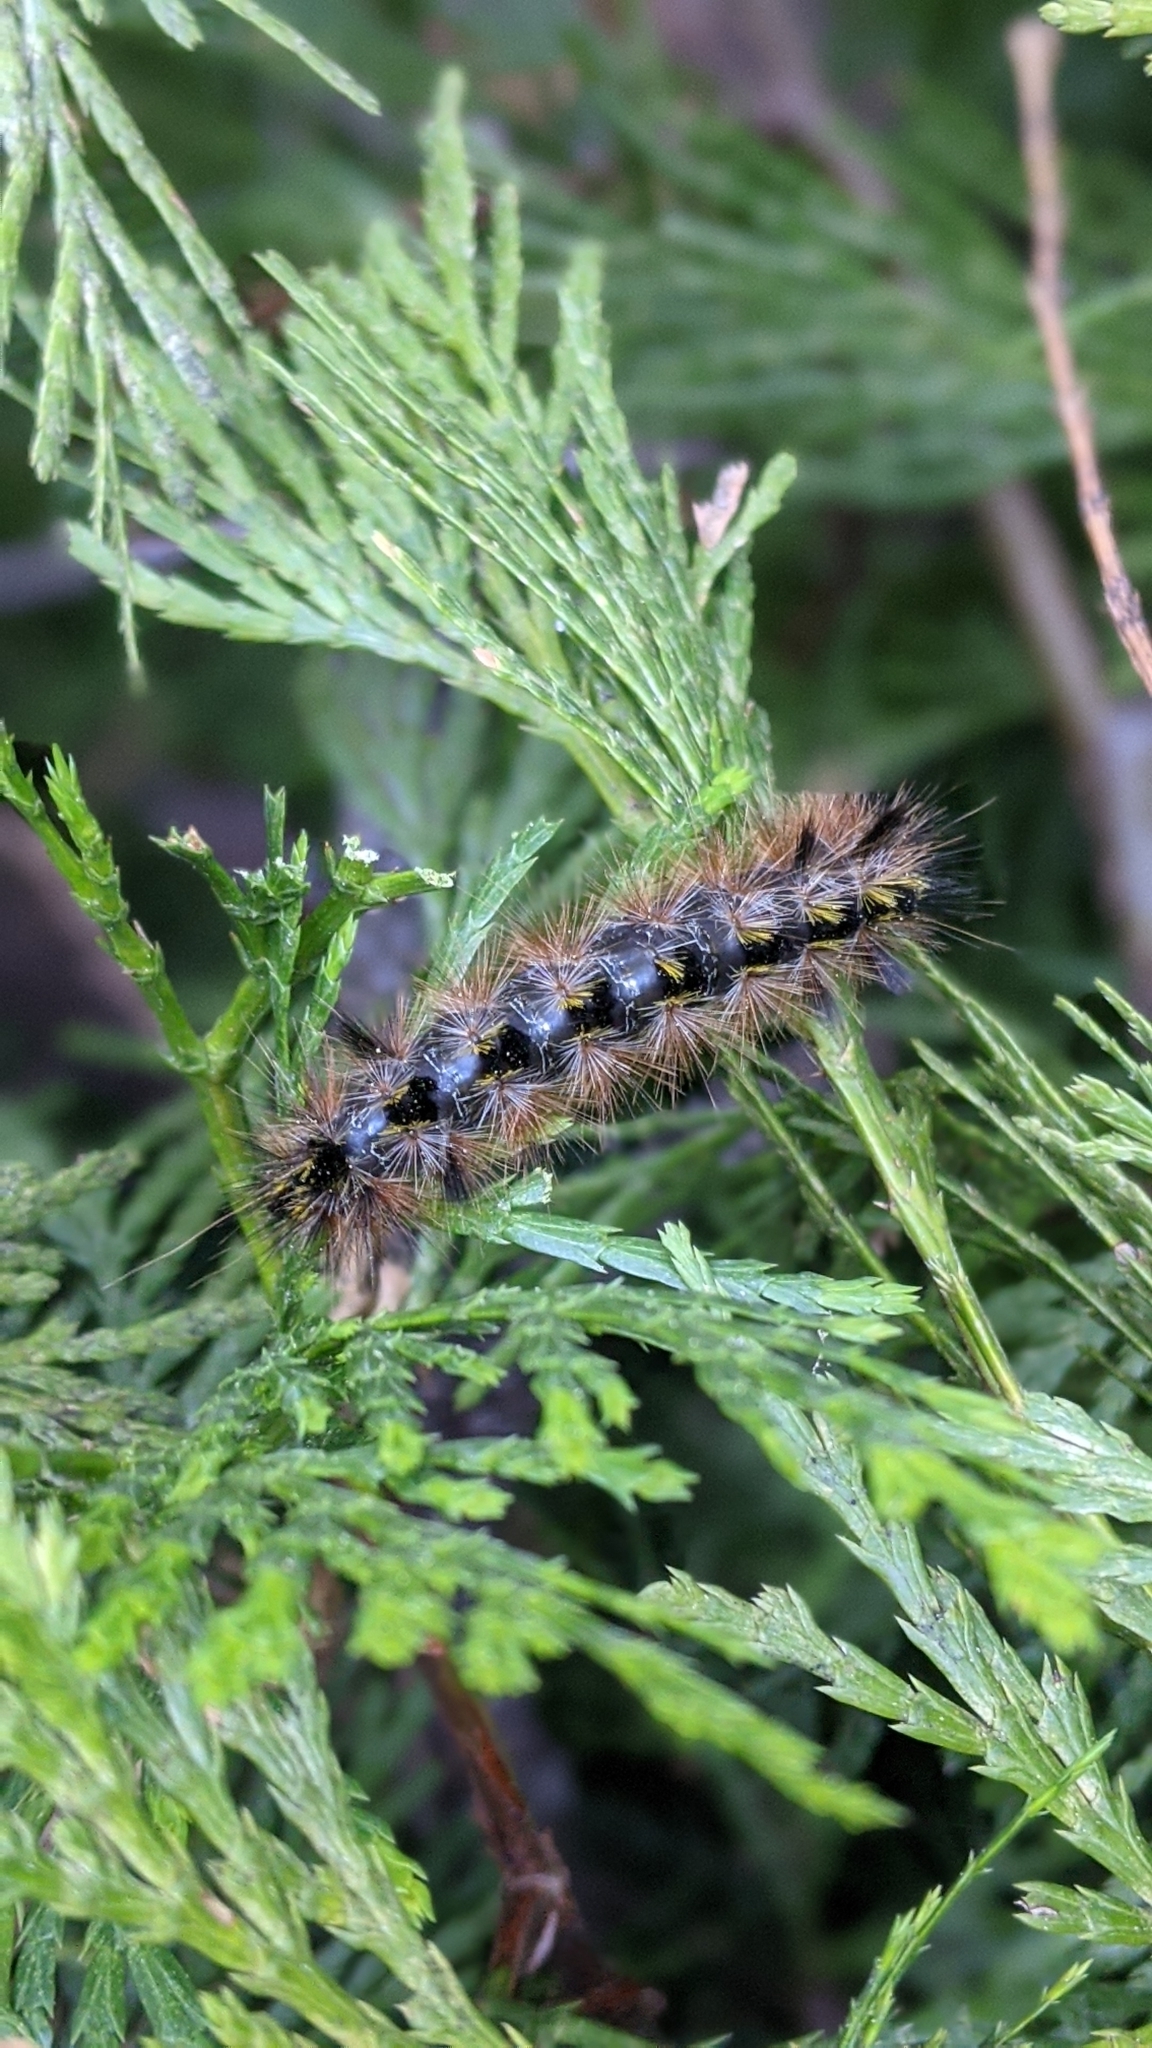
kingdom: Animalia
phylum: Arthropoda
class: Insecta
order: Lepidoptera
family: Erebidae
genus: Lophocampa
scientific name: Lophocampa argentata
